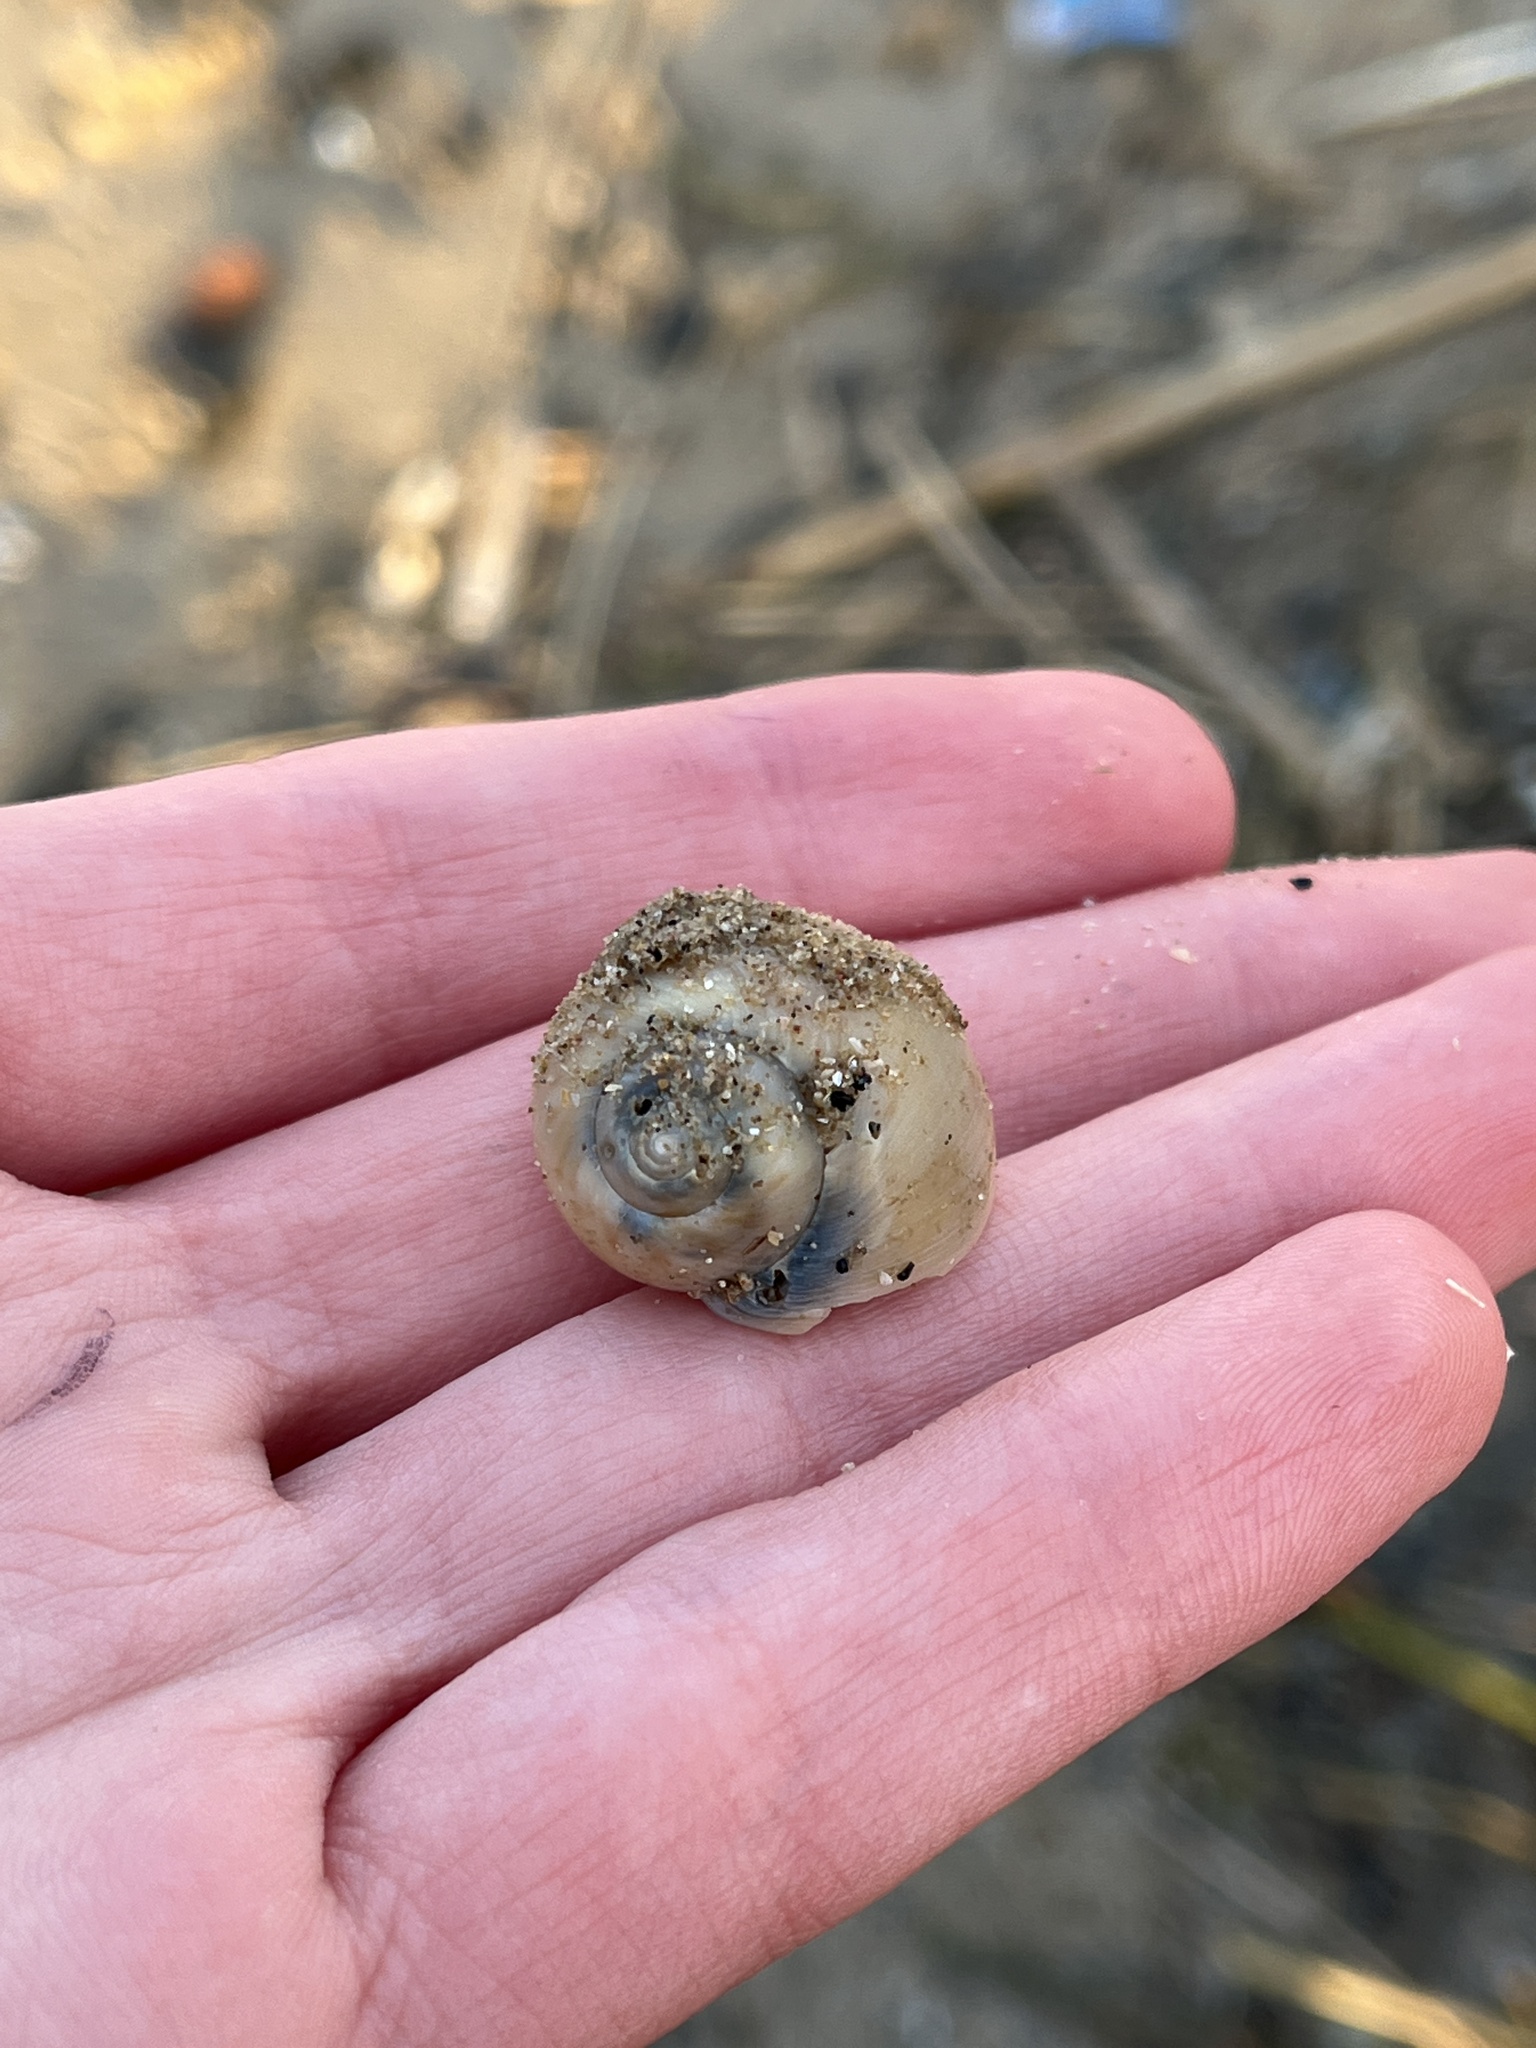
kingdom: Animalia
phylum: Mollusca
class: Gastropoda
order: Littorinimorpha
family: Naticidae
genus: Euspira
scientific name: Euspira catena
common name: Necklace shell
